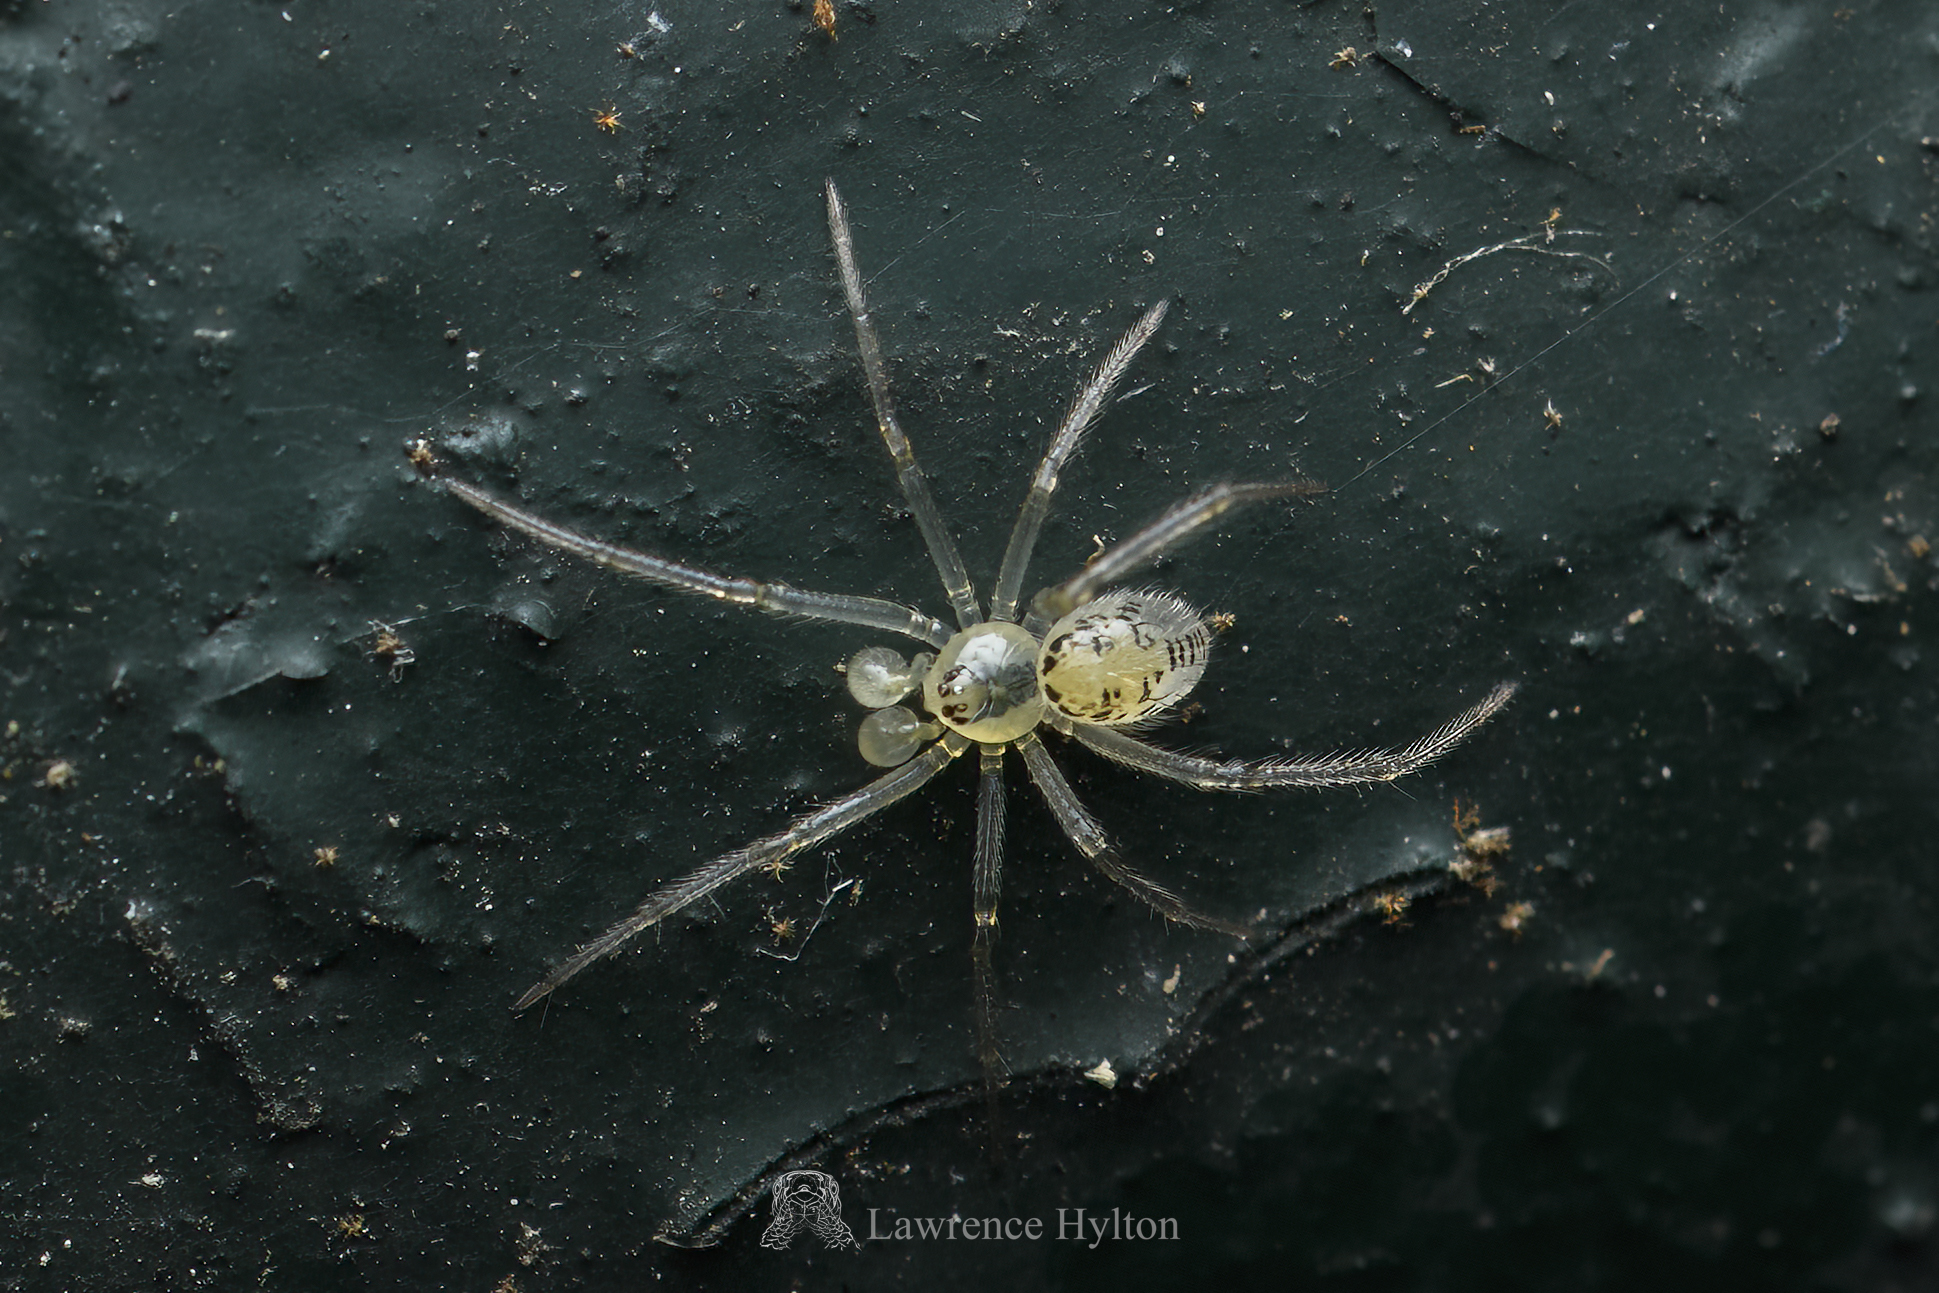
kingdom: Animalia
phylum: Arthropoda
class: Arachnida
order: Araneae
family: Theridiidae
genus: Phycosoma
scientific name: Phycosoma digitula
